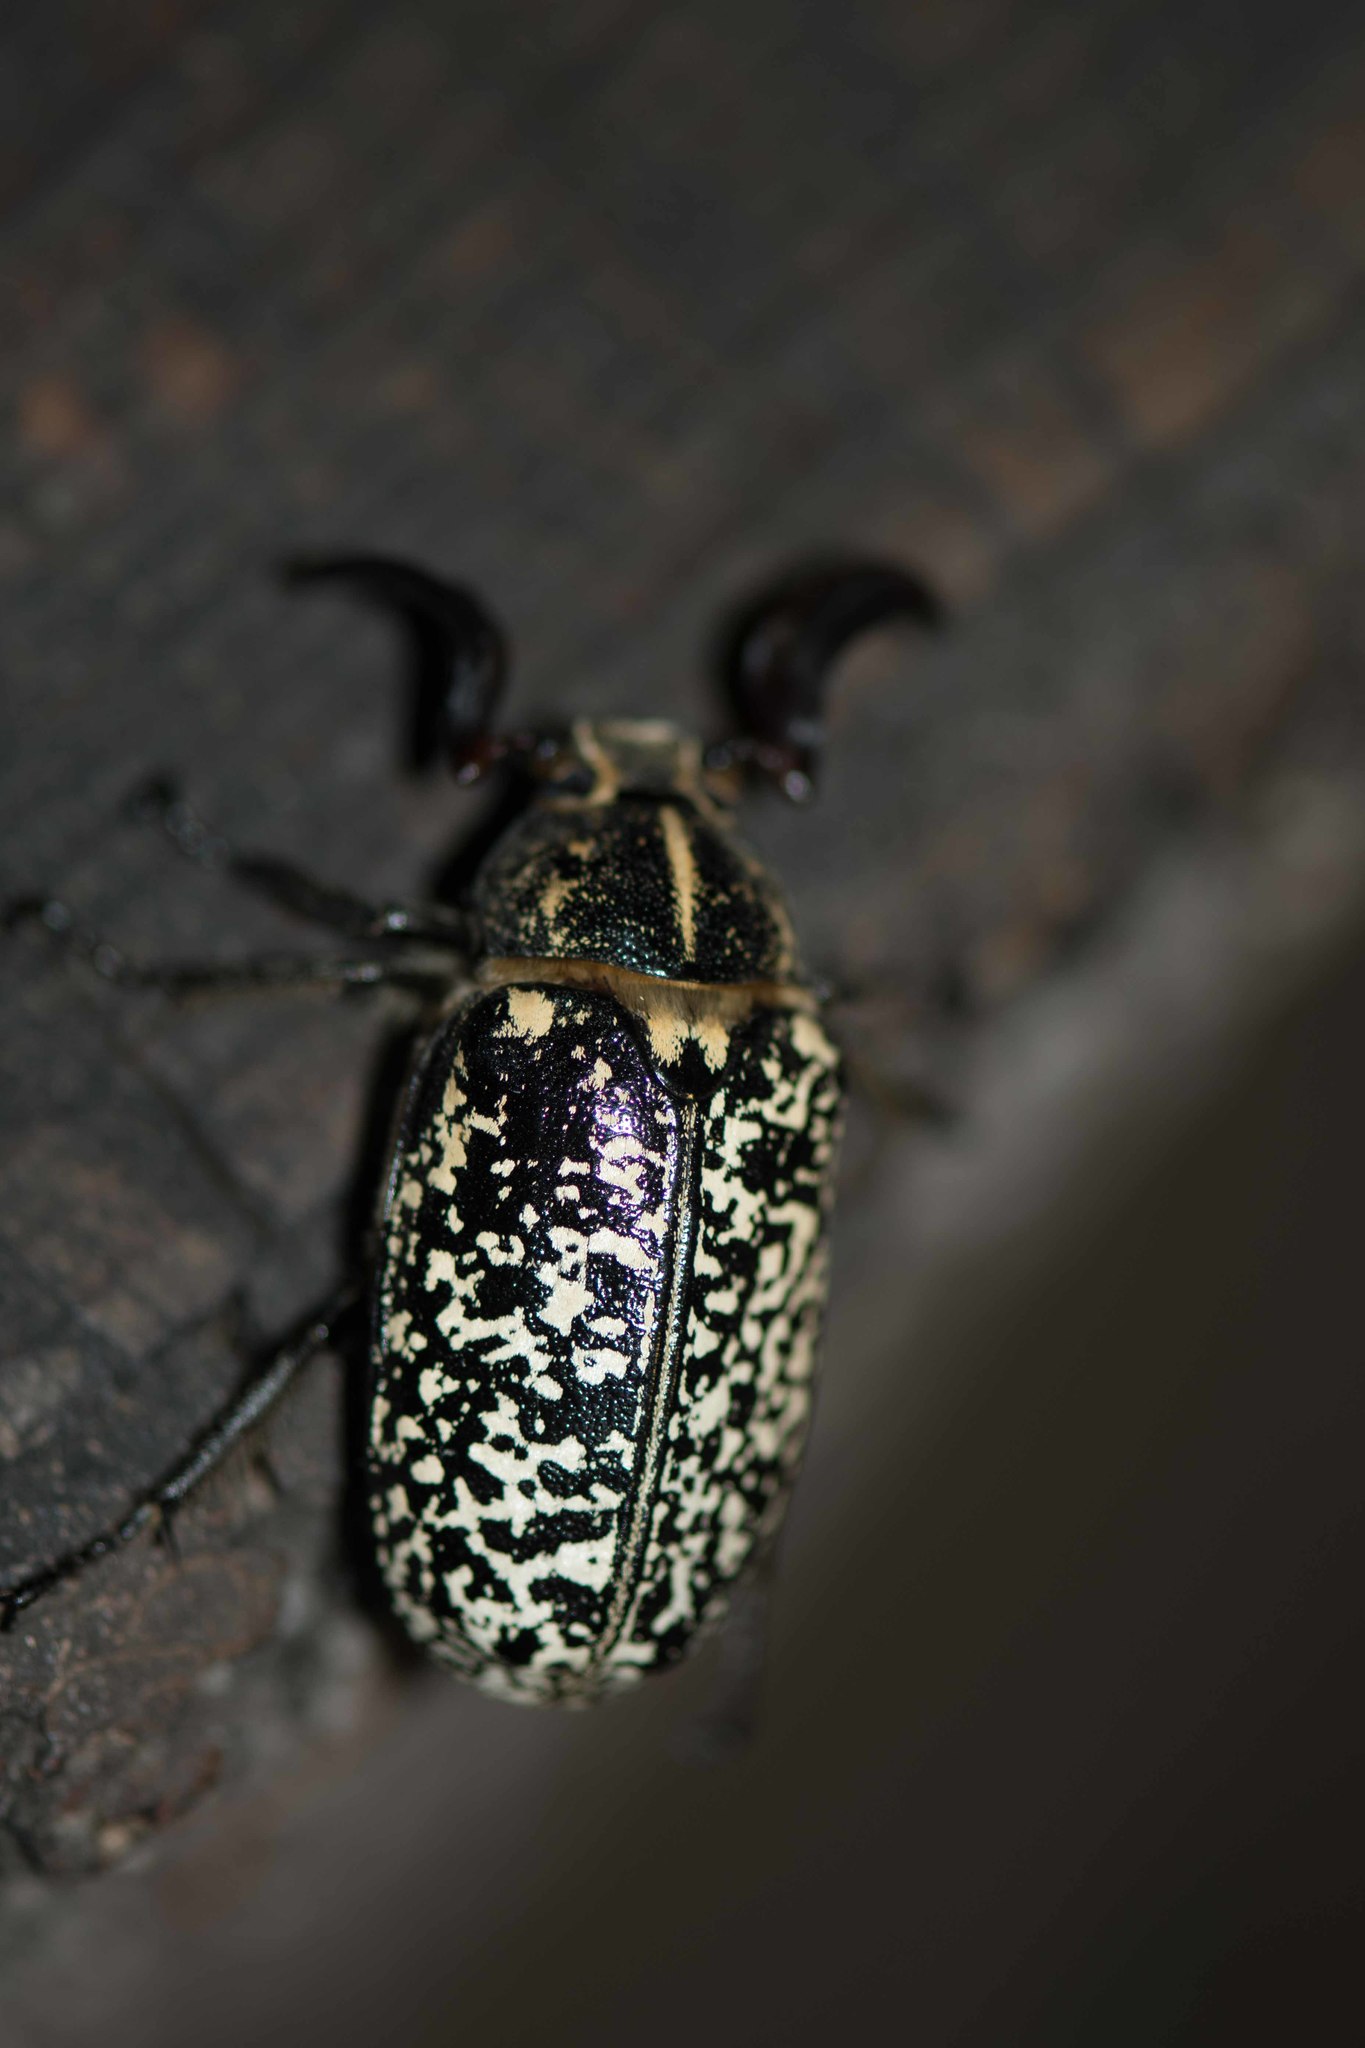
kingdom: Animalia
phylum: Arthropoda
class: Insecta
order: Coleoptera
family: Scarabaeidae
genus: Polyphylla
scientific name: Polyphylla fullo
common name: Pine chafer
